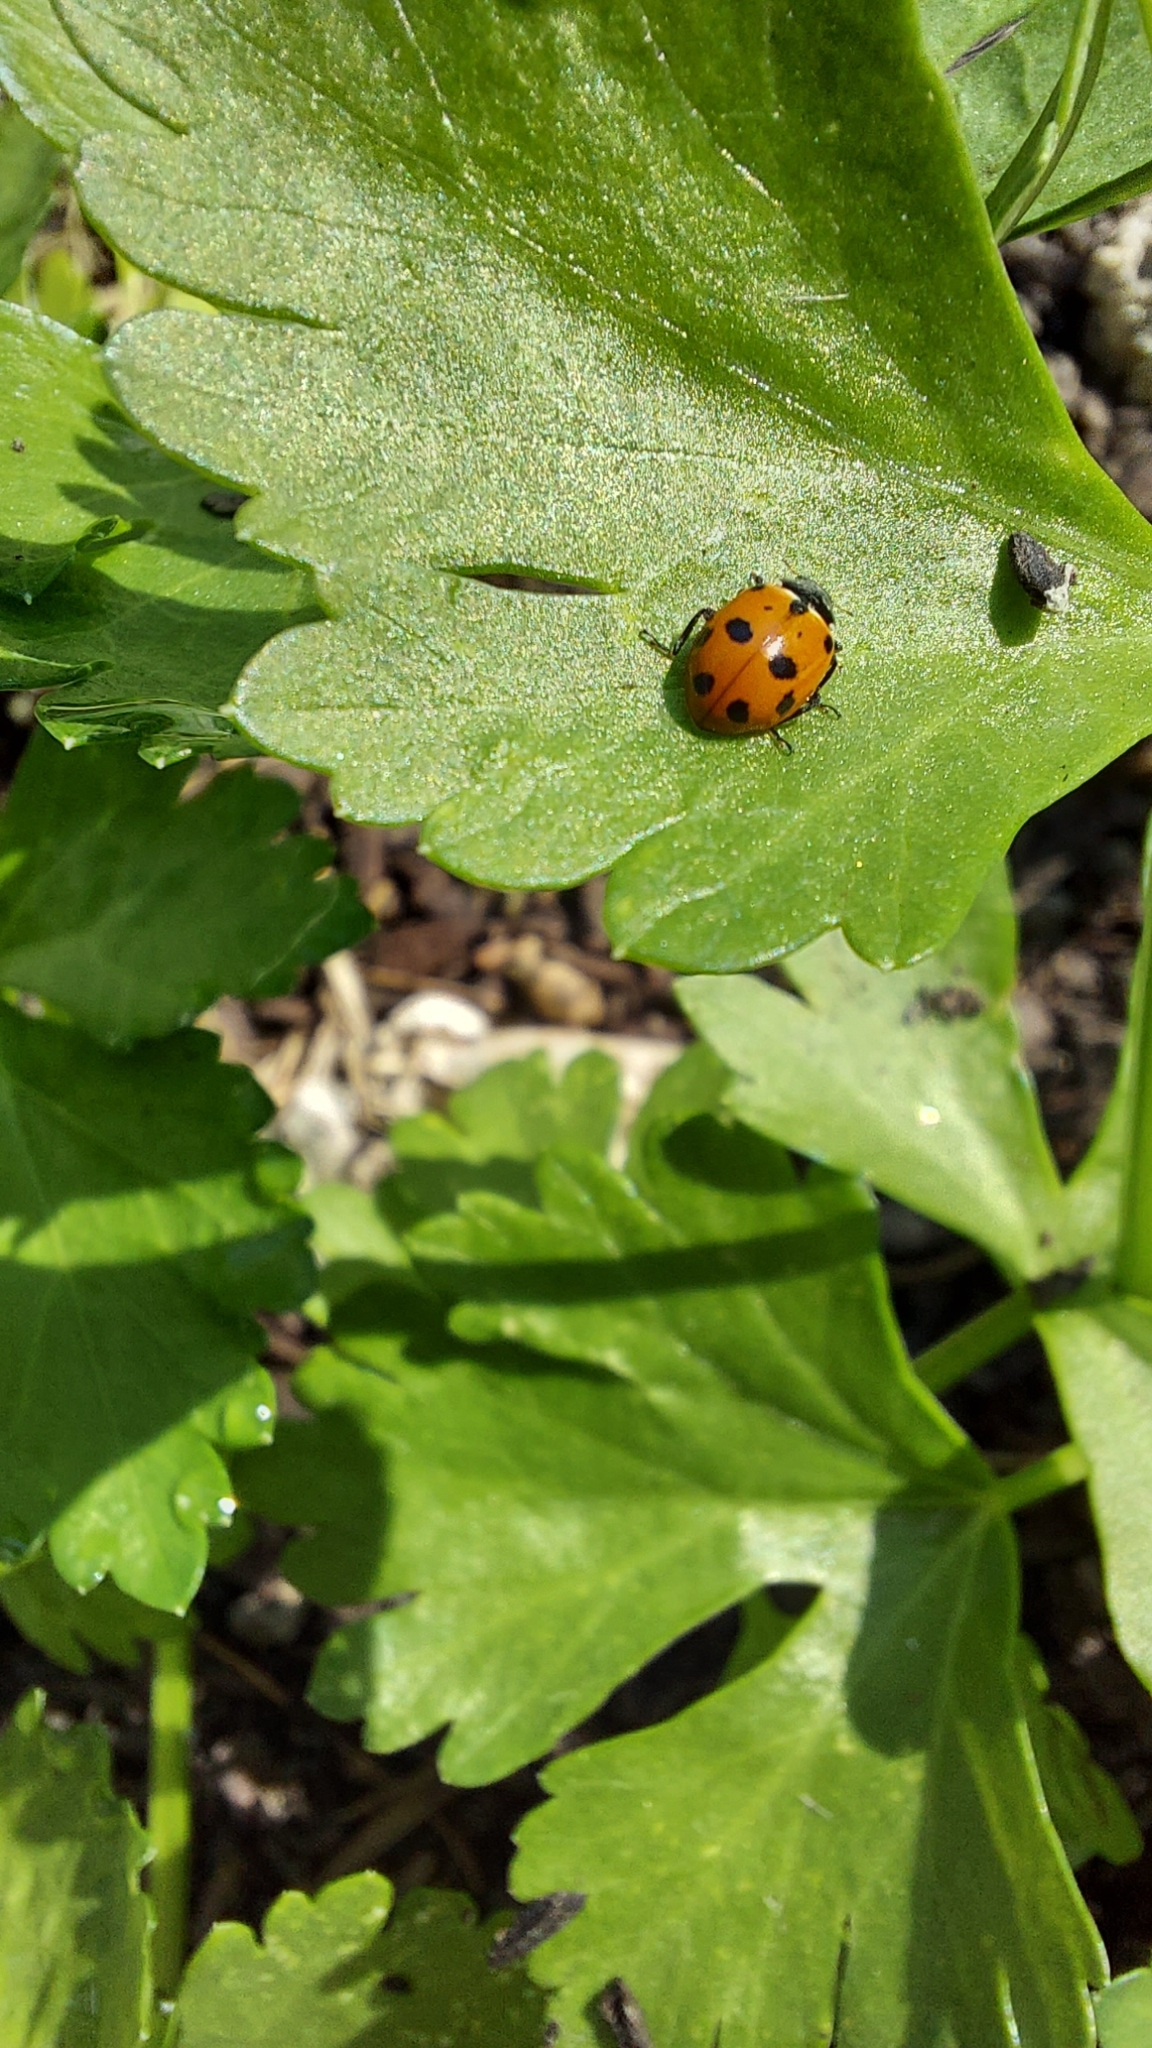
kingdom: Animalia
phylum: Arthropoda
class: Insecta
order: Coleoptera
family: Coccinellidae
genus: Coccinella
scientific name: Coccinella undecimpunctata
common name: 11-spot ladybird
